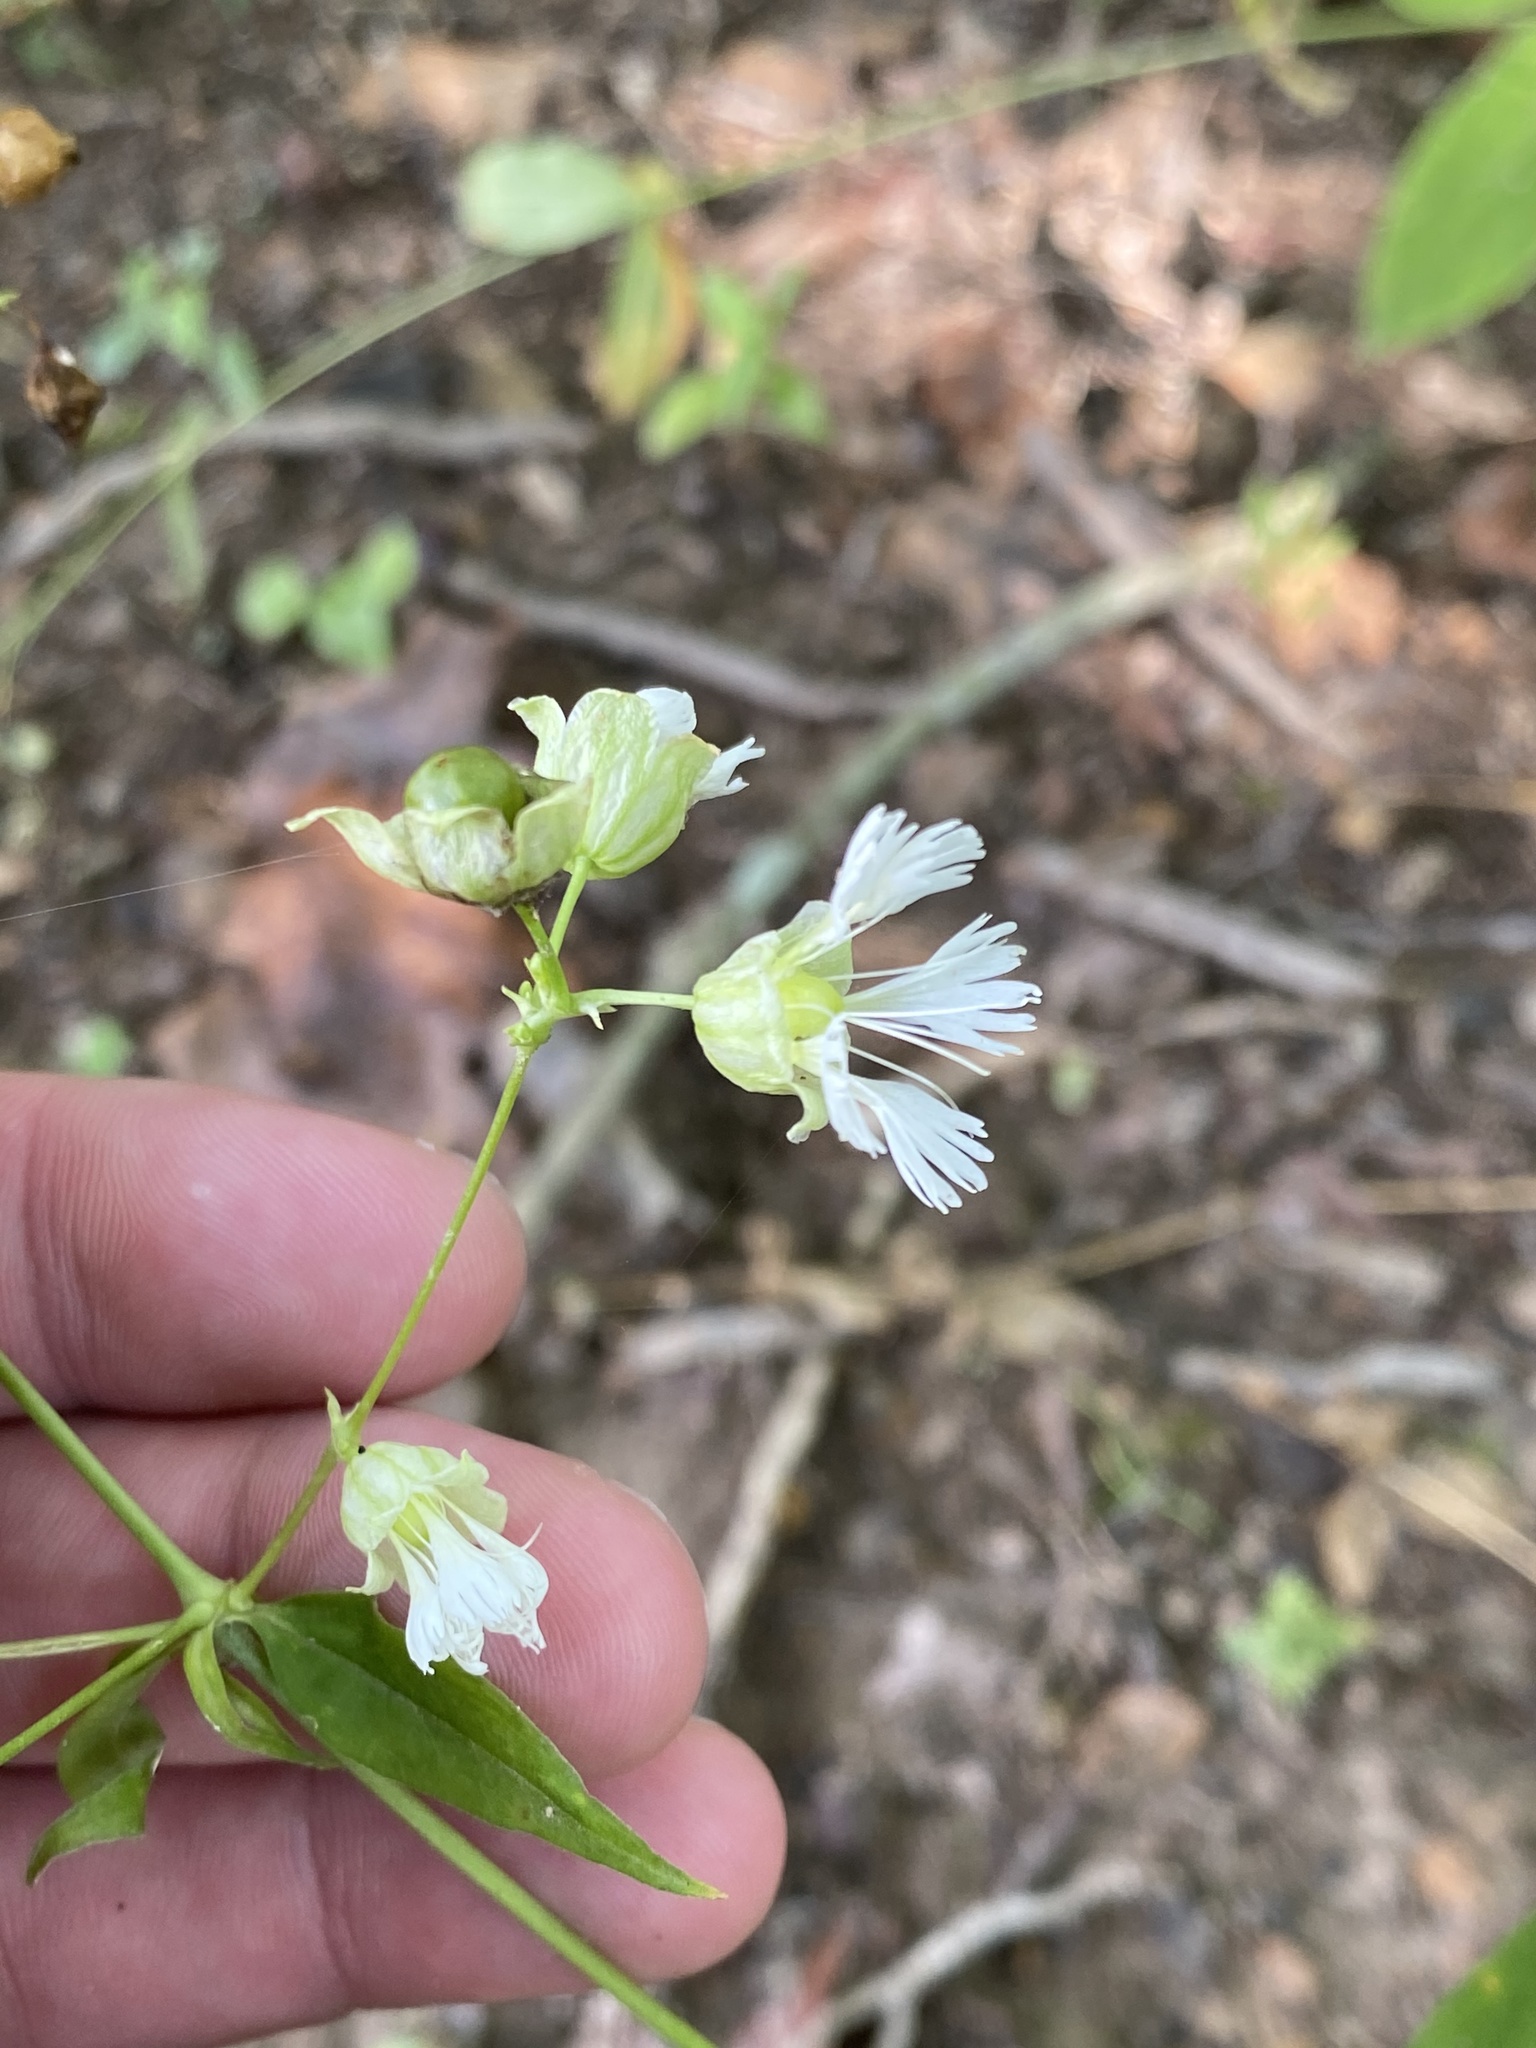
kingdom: Plantae
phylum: Tracheophyta
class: Magnoliopsida
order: Caryophyllales
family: Caryophyllaceae
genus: Silene
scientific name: Silene stellata
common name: Starry campion
